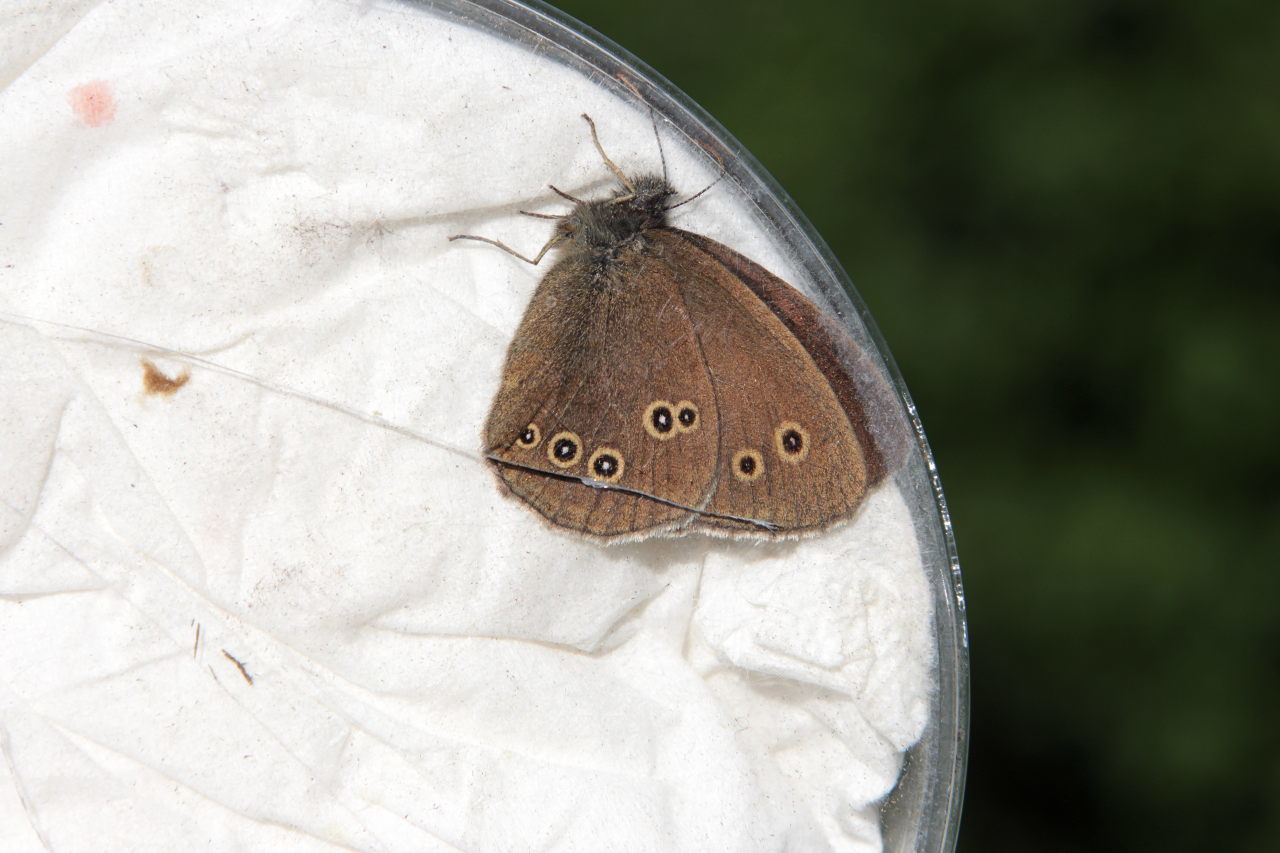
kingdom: Animalia
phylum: Arthropoda
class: Insecta
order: Lepidoptera
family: Nymphalidae
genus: Aphantopus
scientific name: Aphantopus hyperantus
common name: Ringlet
